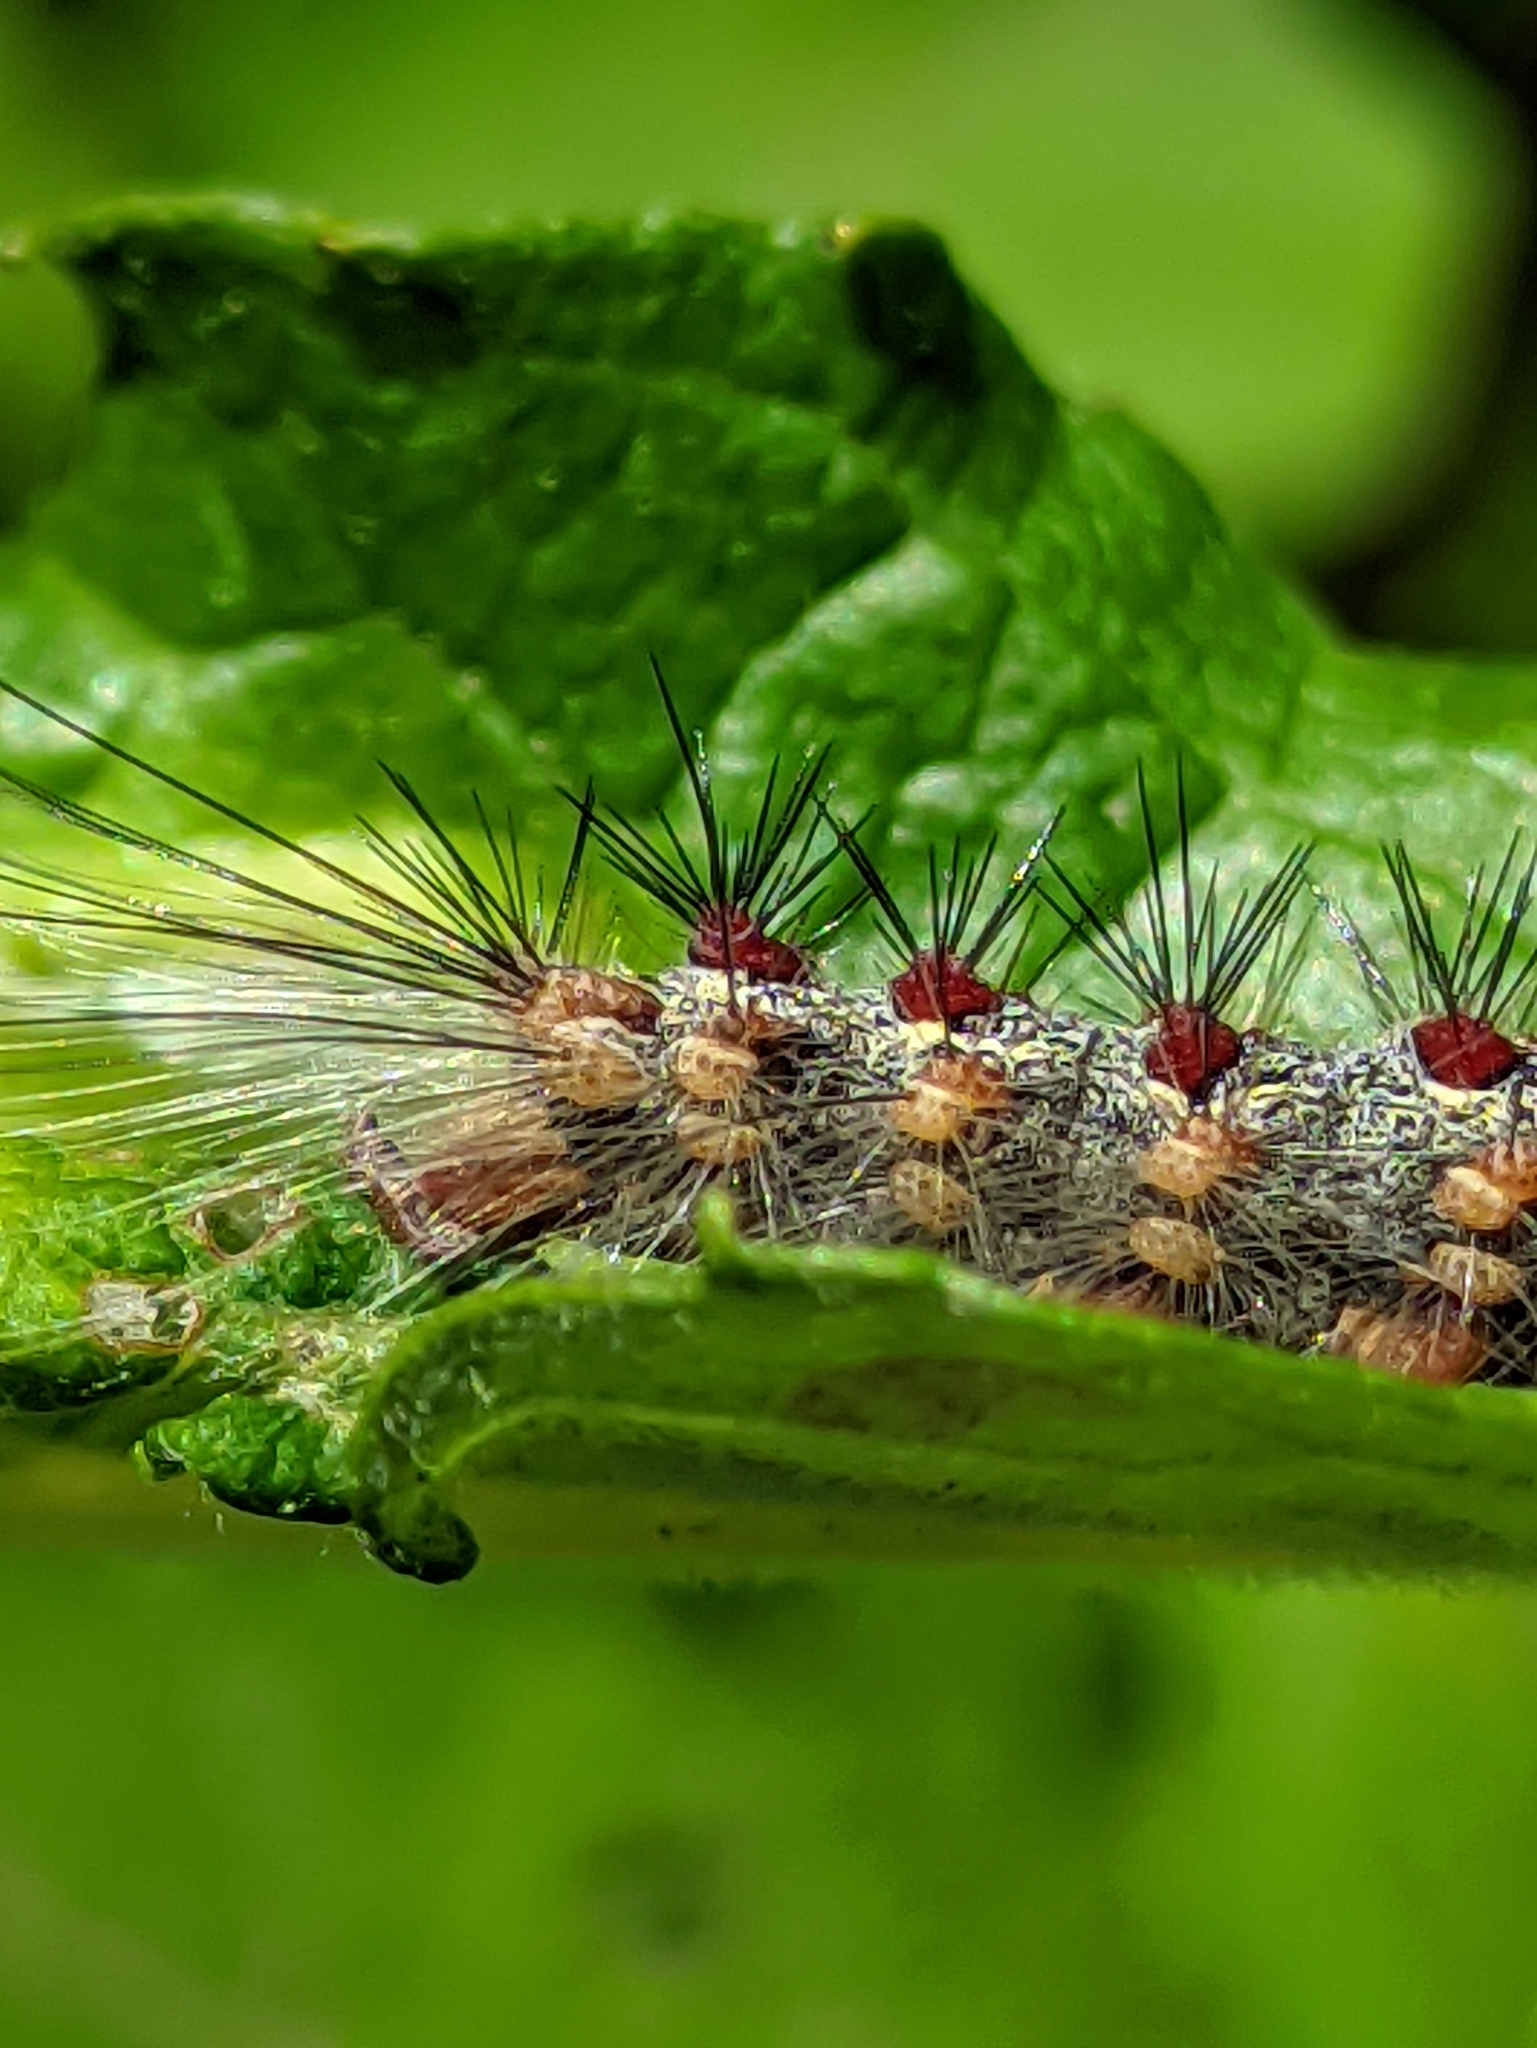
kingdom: Animalia
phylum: Arthropoda
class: Insecta
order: Lepidoptera
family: Erebidae
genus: Lymantria
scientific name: Lymantria dispar
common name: Gypsy moth
